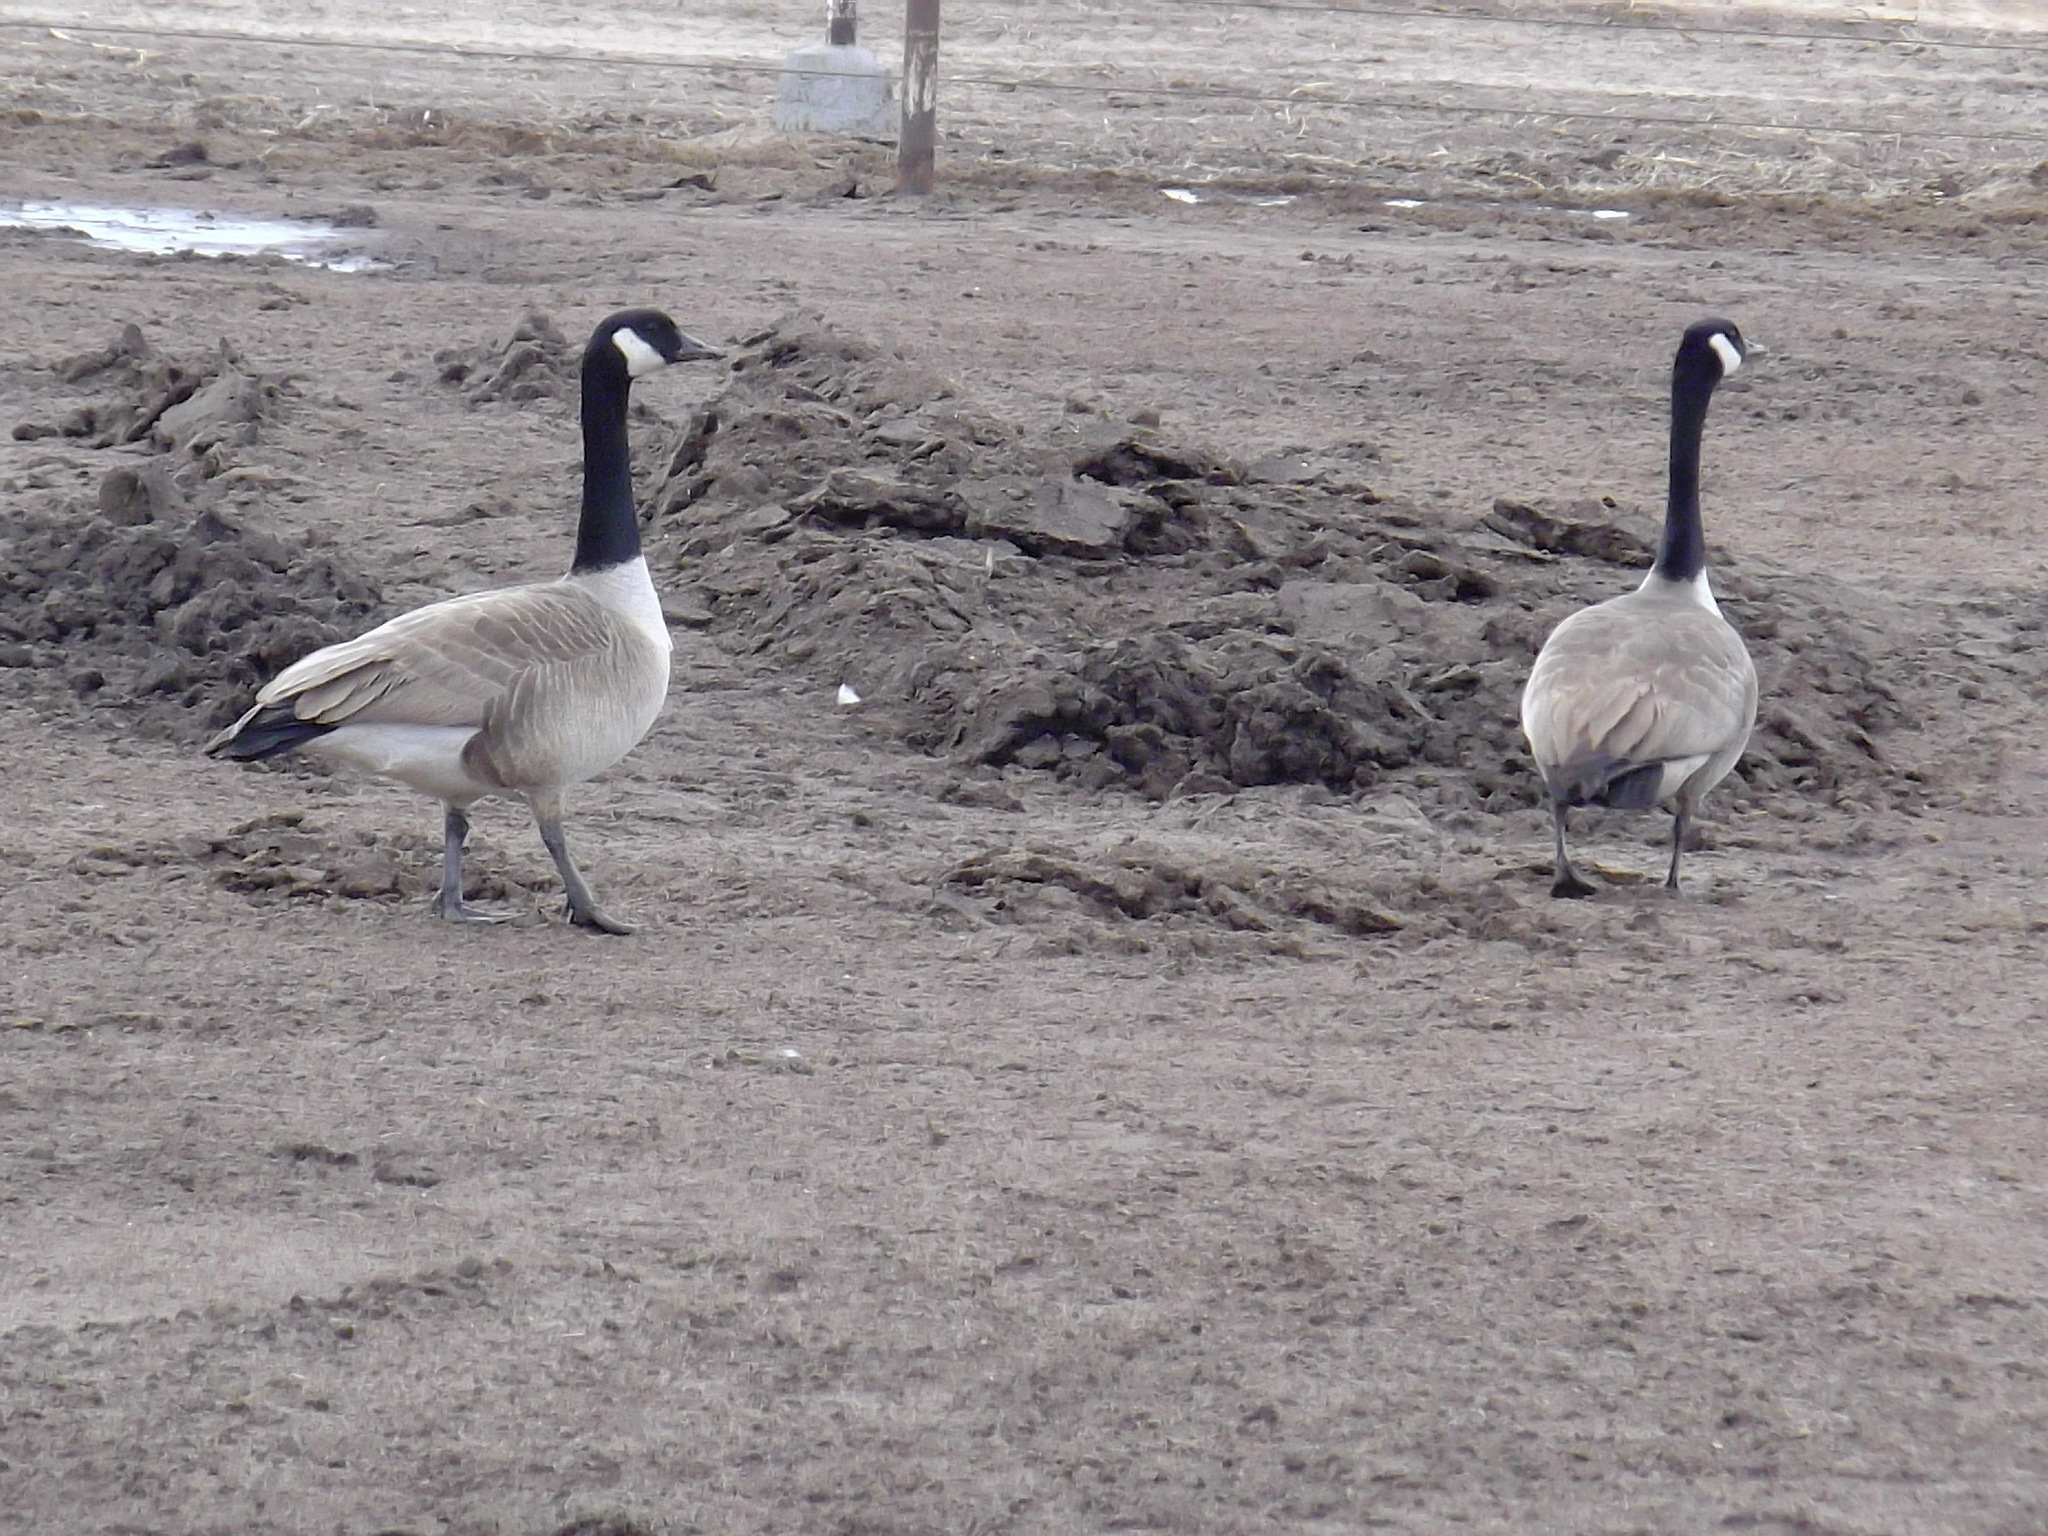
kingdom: Animalia
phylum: Chordata
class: Aves
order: Anseriformes
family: Anatidae
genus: Branta
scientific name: Branta canadensis
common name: Canada goose
